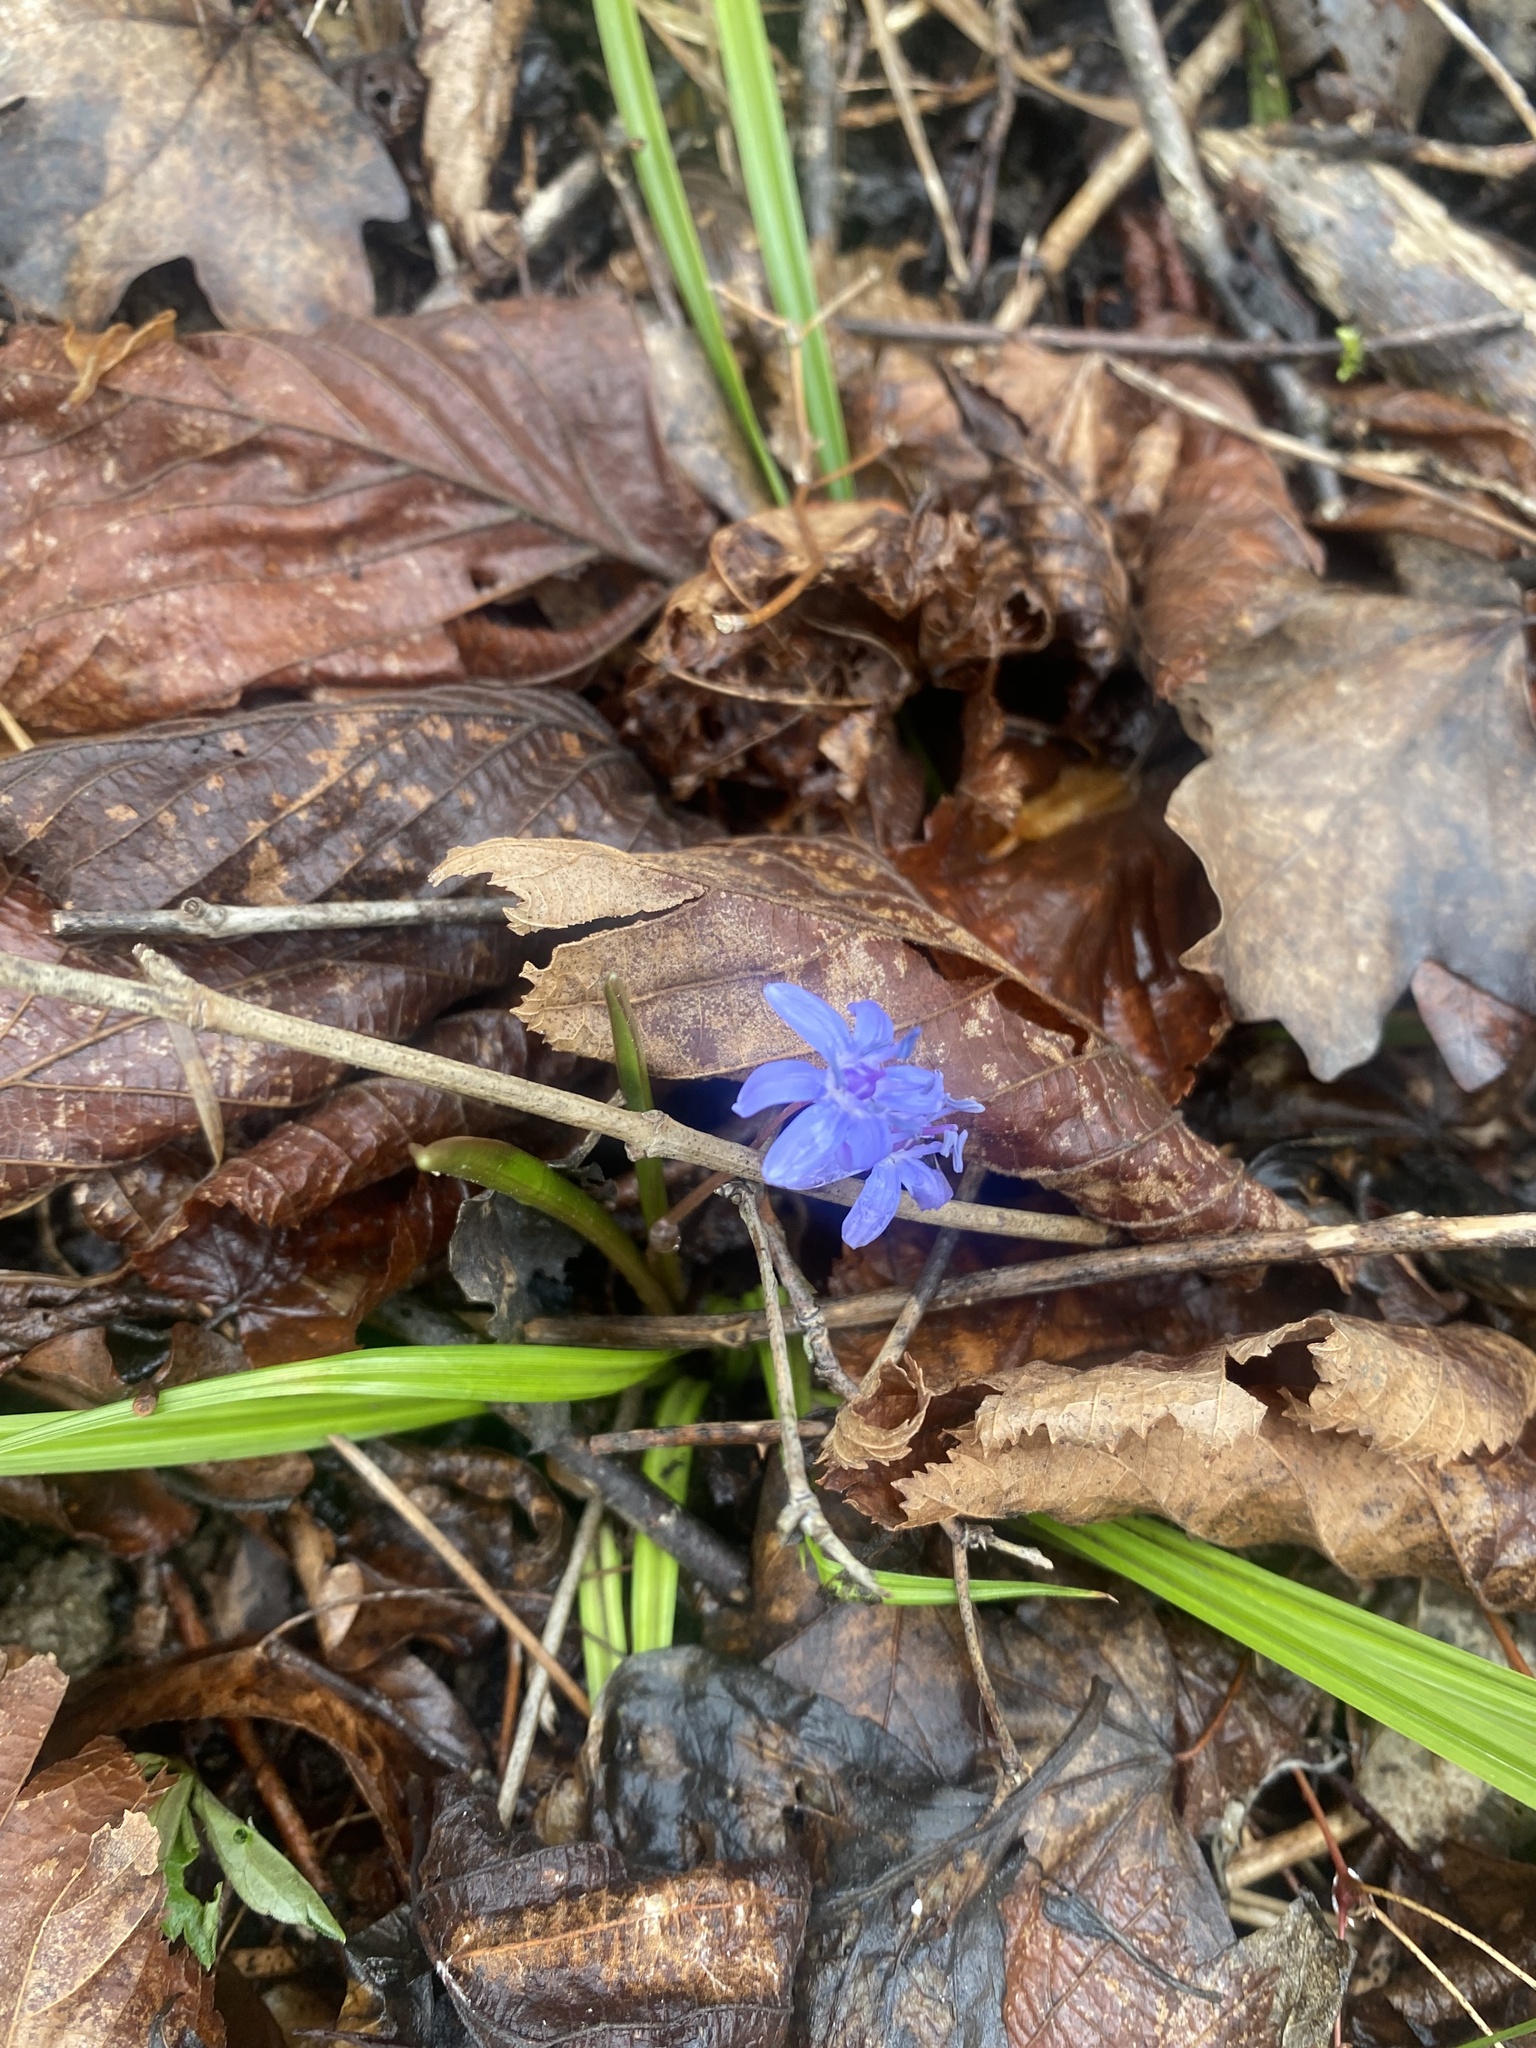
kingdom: Plantae
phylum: Tracheophyta
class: Liliopsida
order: Asparagales
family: Asparagaceae
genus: Scilla
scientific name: Scilla bifolia
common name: Alpine squill
